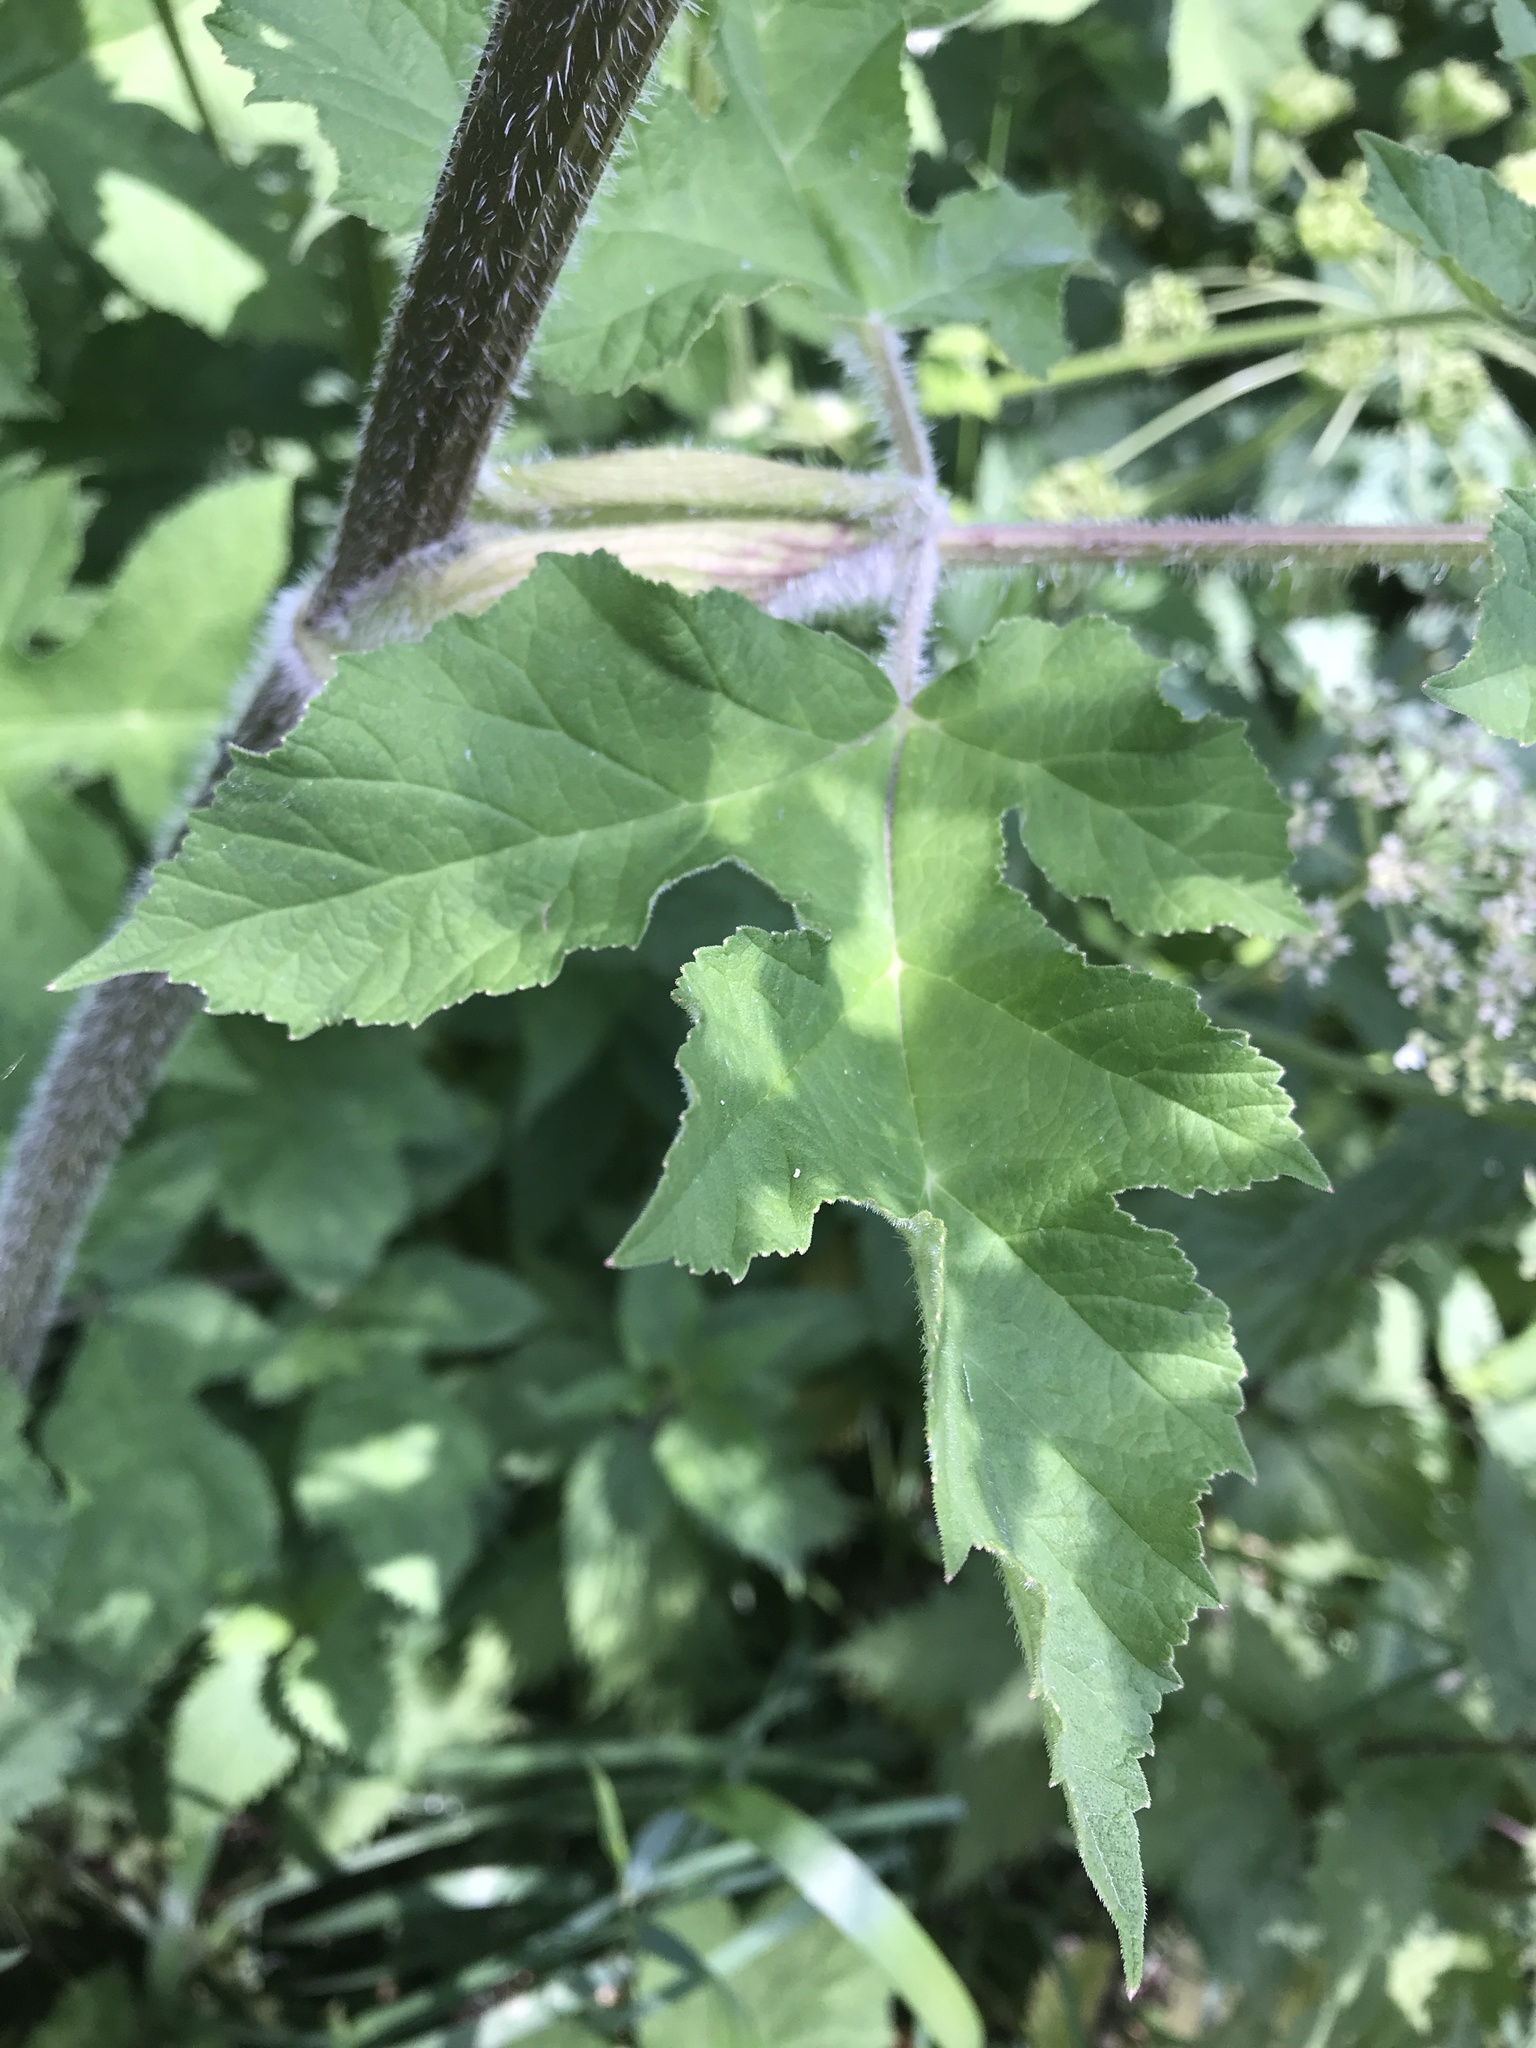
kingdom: Plantae
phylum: Tracheophyta
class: Magnoliopsida
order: Apiales
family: Apiaceae
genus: Heracleum
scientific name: Heracleum sphondylium
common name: Hogweed
